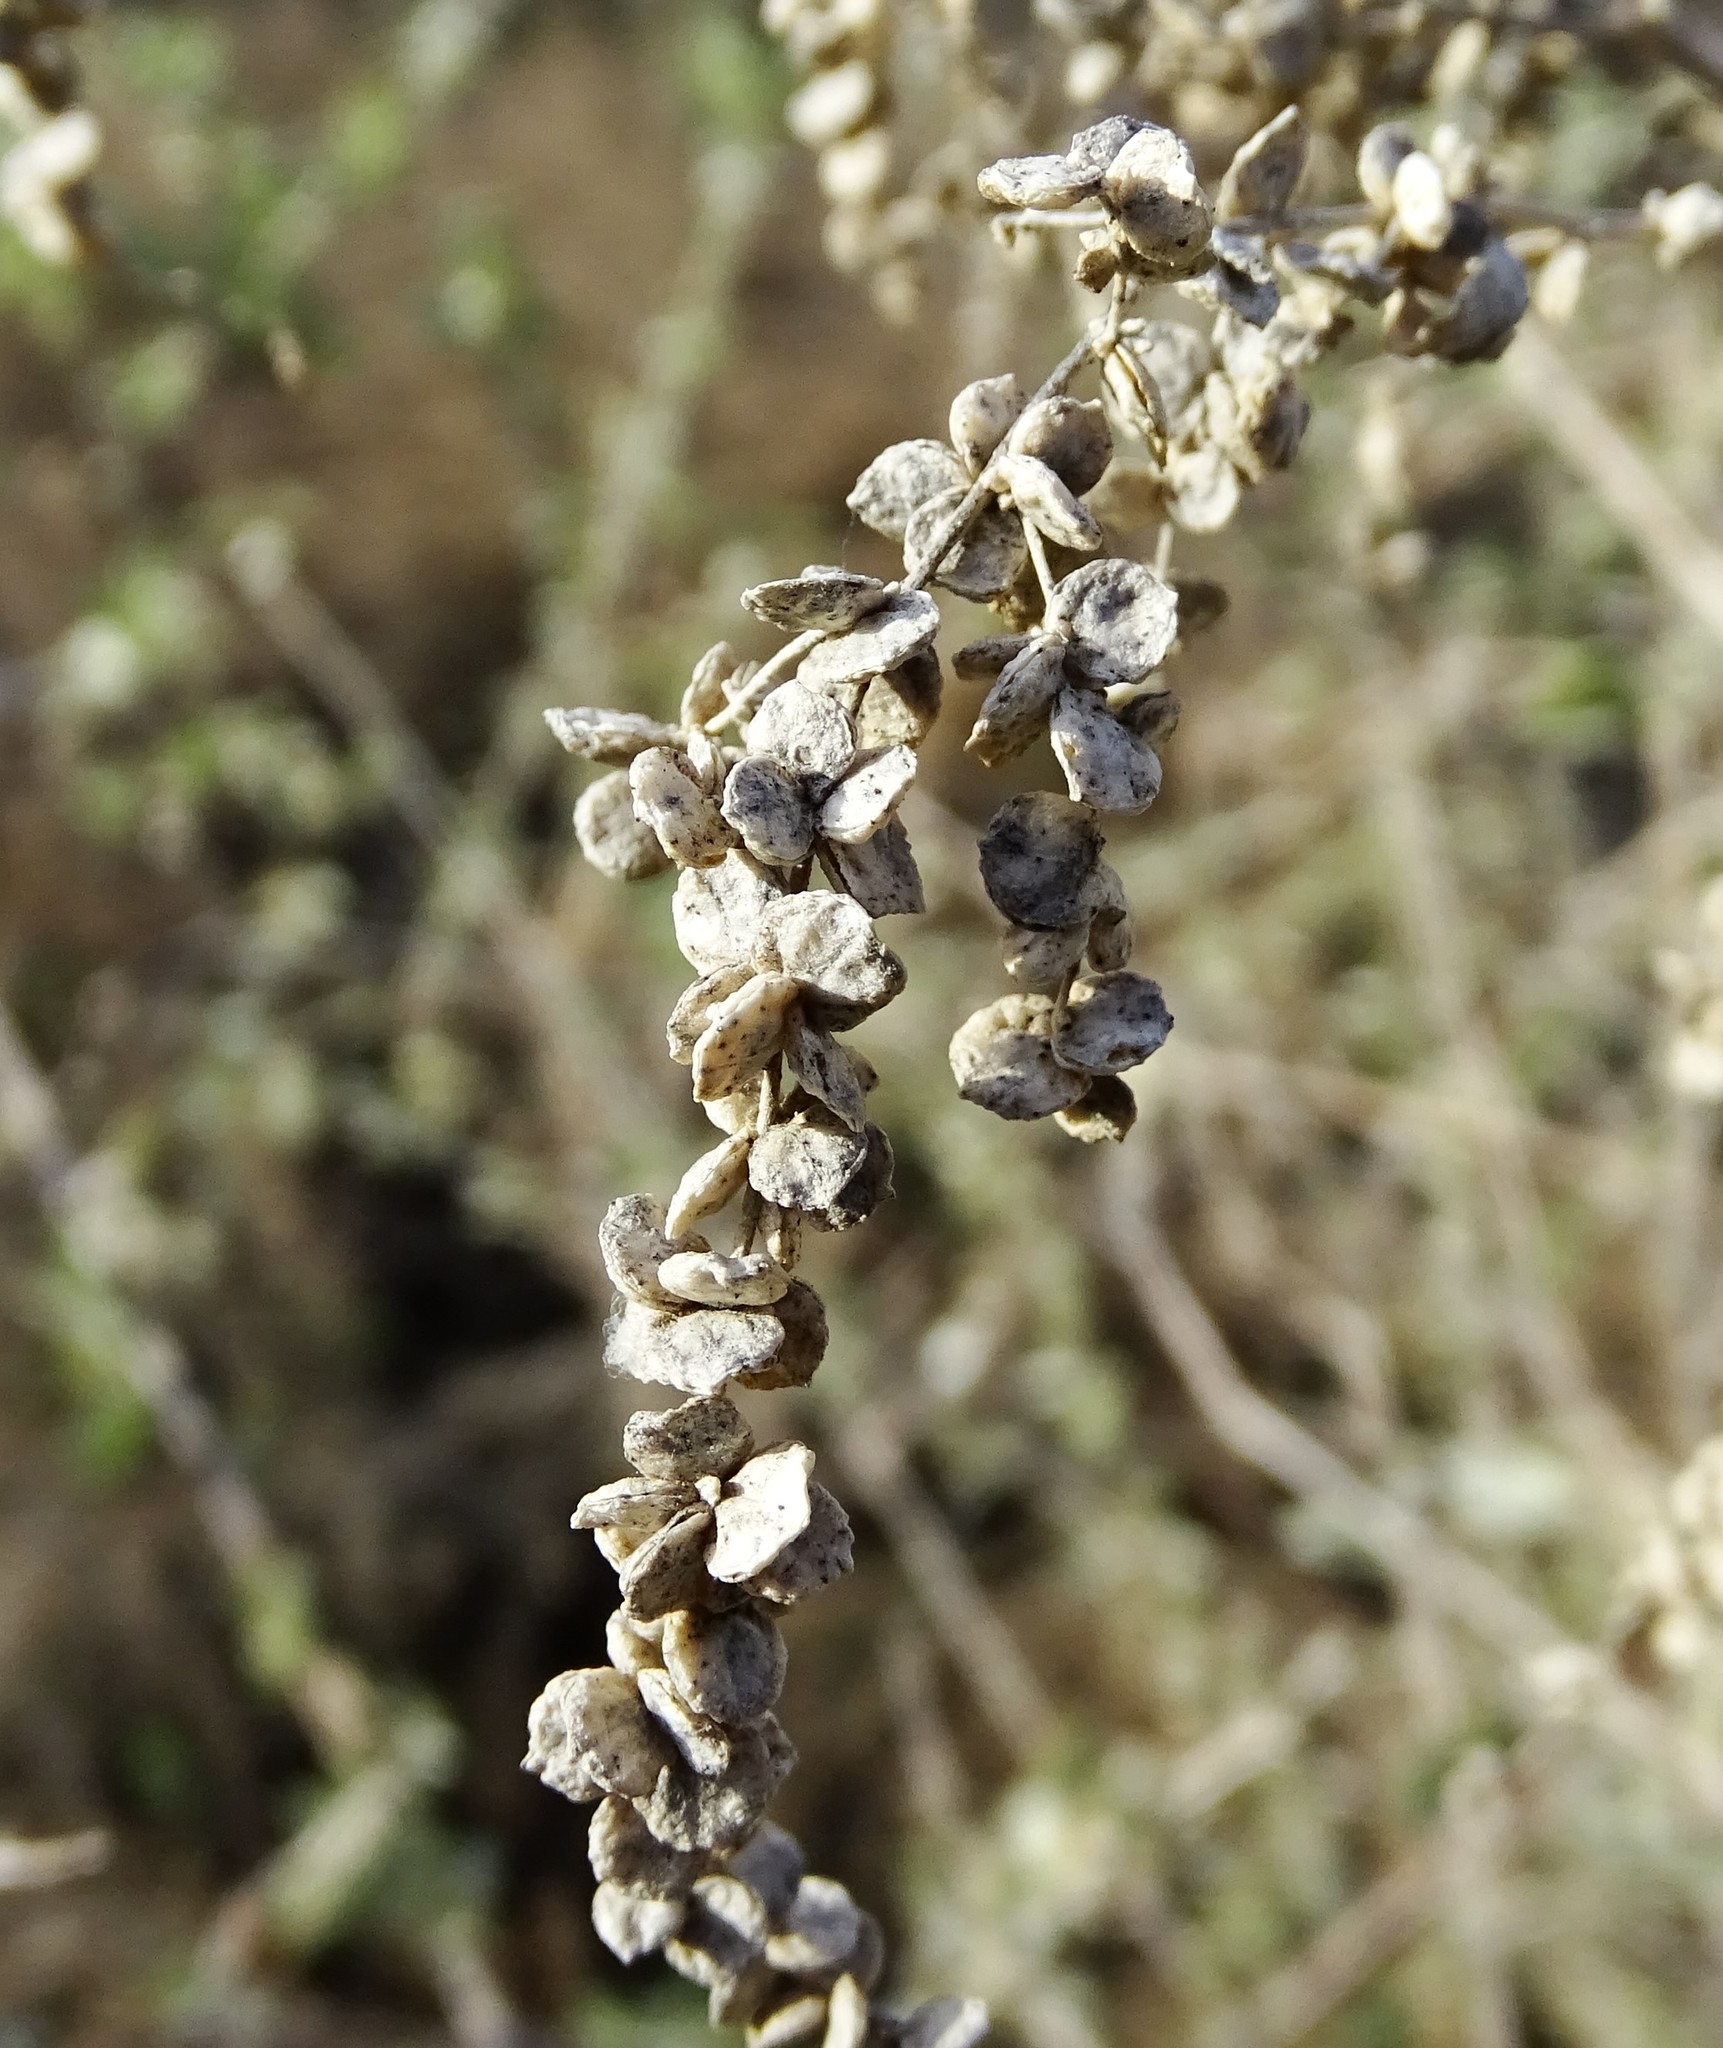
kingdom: Plantae
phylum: Tracheophyta
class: Magnoliopsida
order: Caryophyllales
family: Amaranthaceae
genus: Atriplex
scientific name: Atriplex lentiformis
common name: Big saltbush
